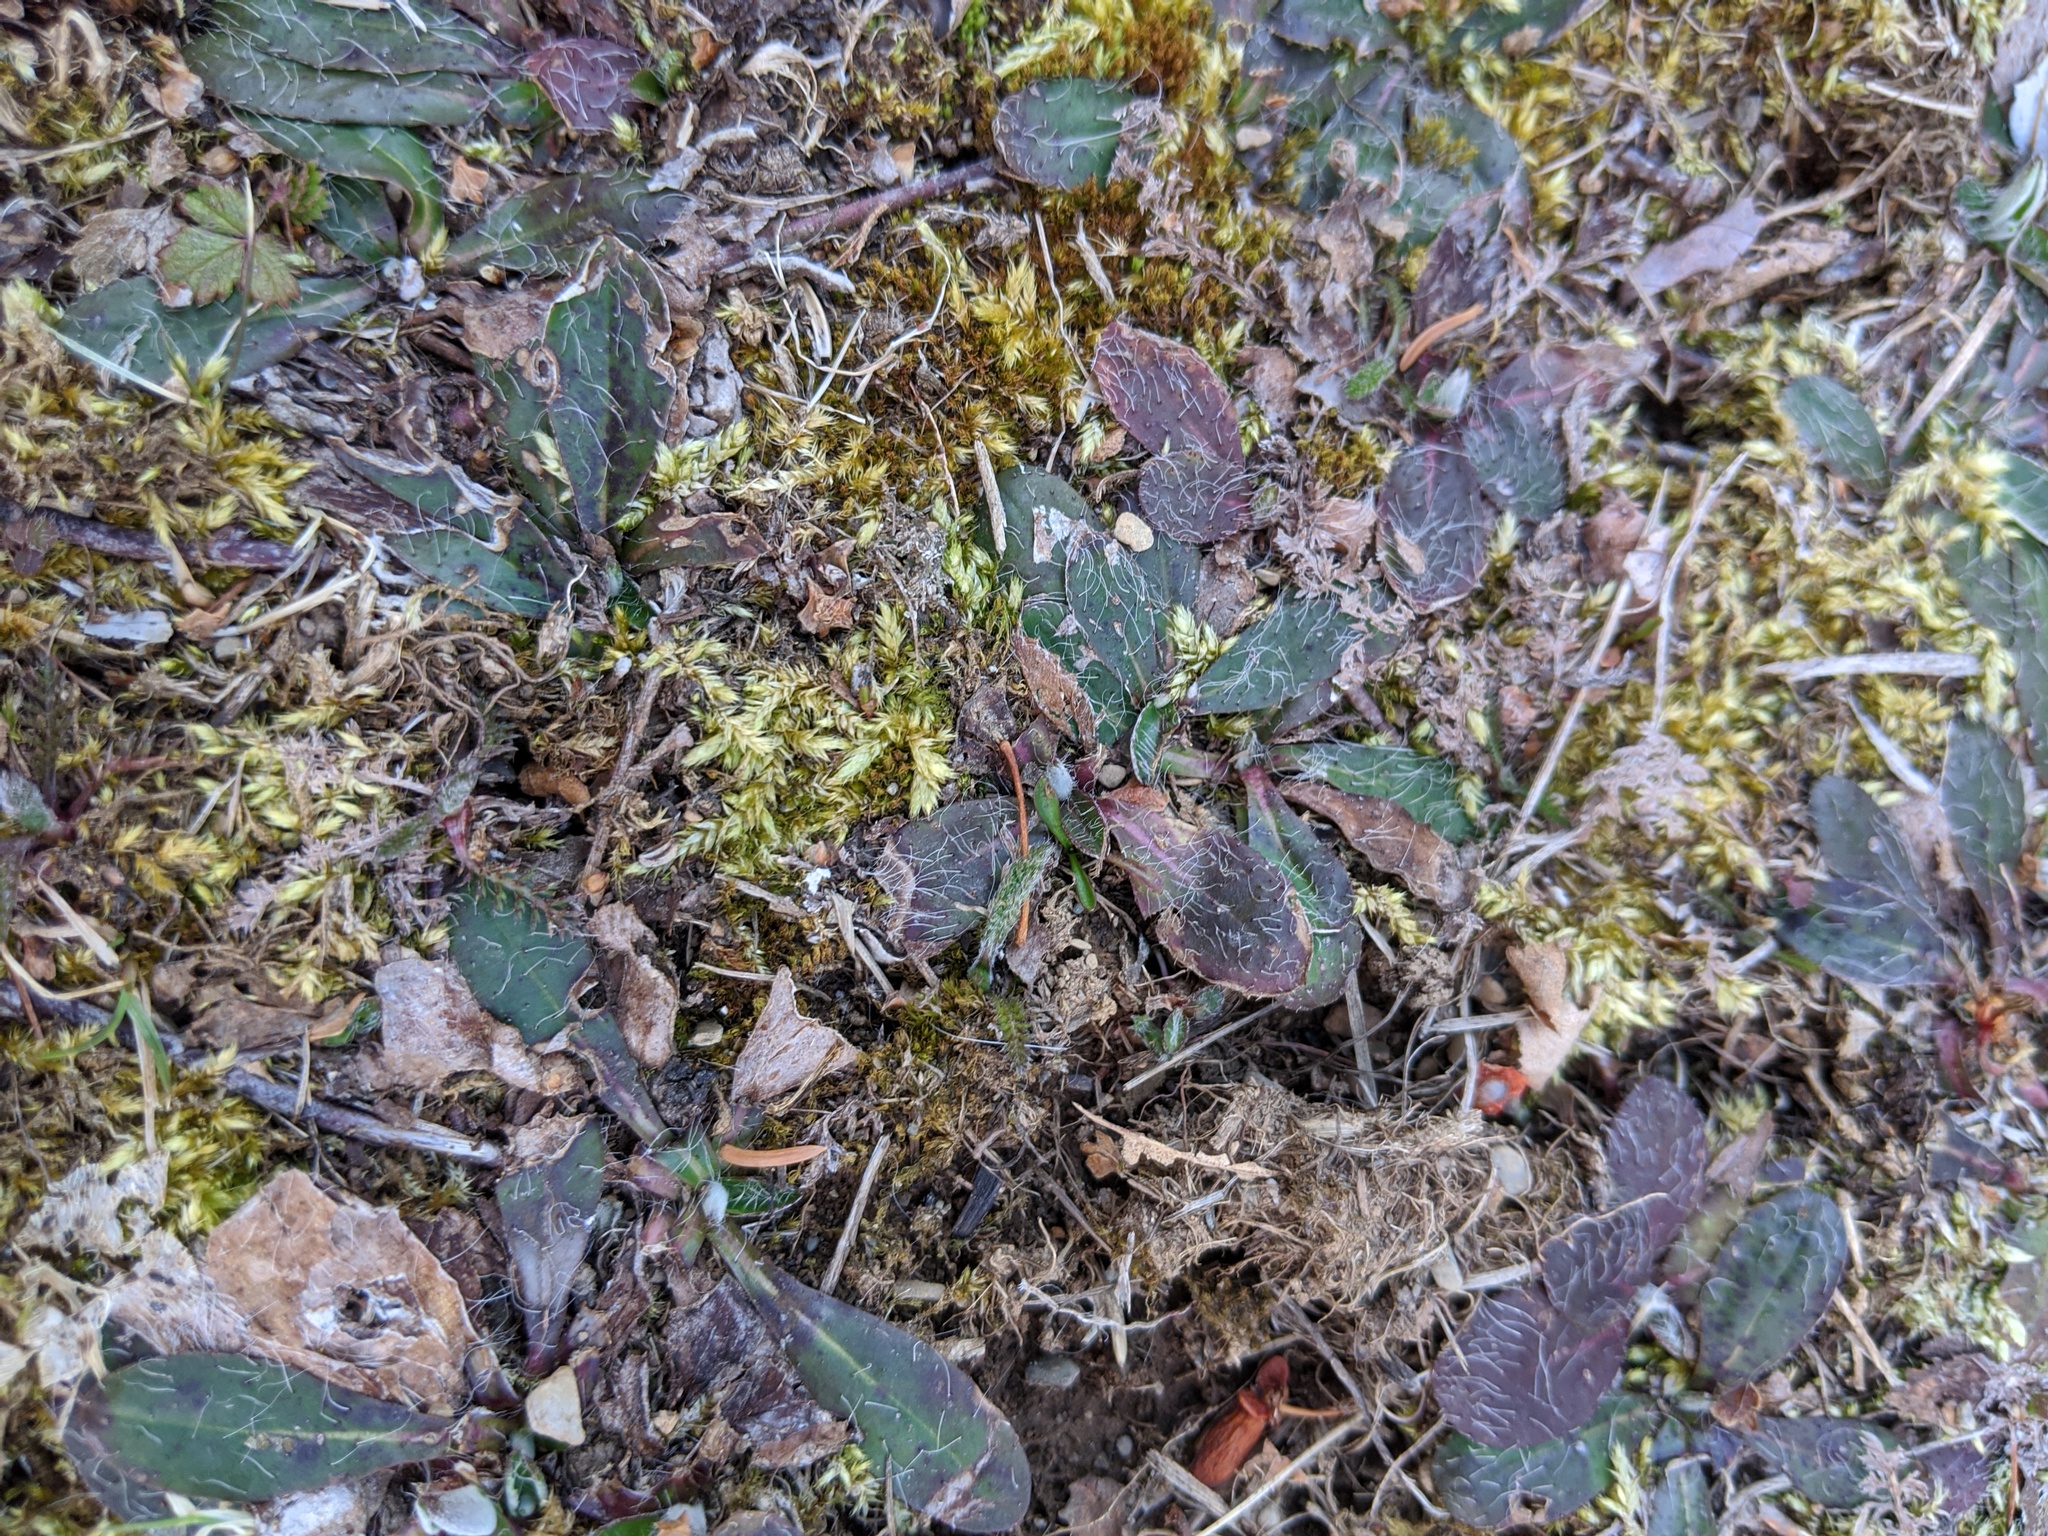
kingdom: Plantae
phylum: Tracheophyta
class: Magnoliopsida
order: Asterales
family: Asteraceae
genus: Pilosella
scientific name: Pilosella officinarum
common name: Mouse-ear hawkweed
